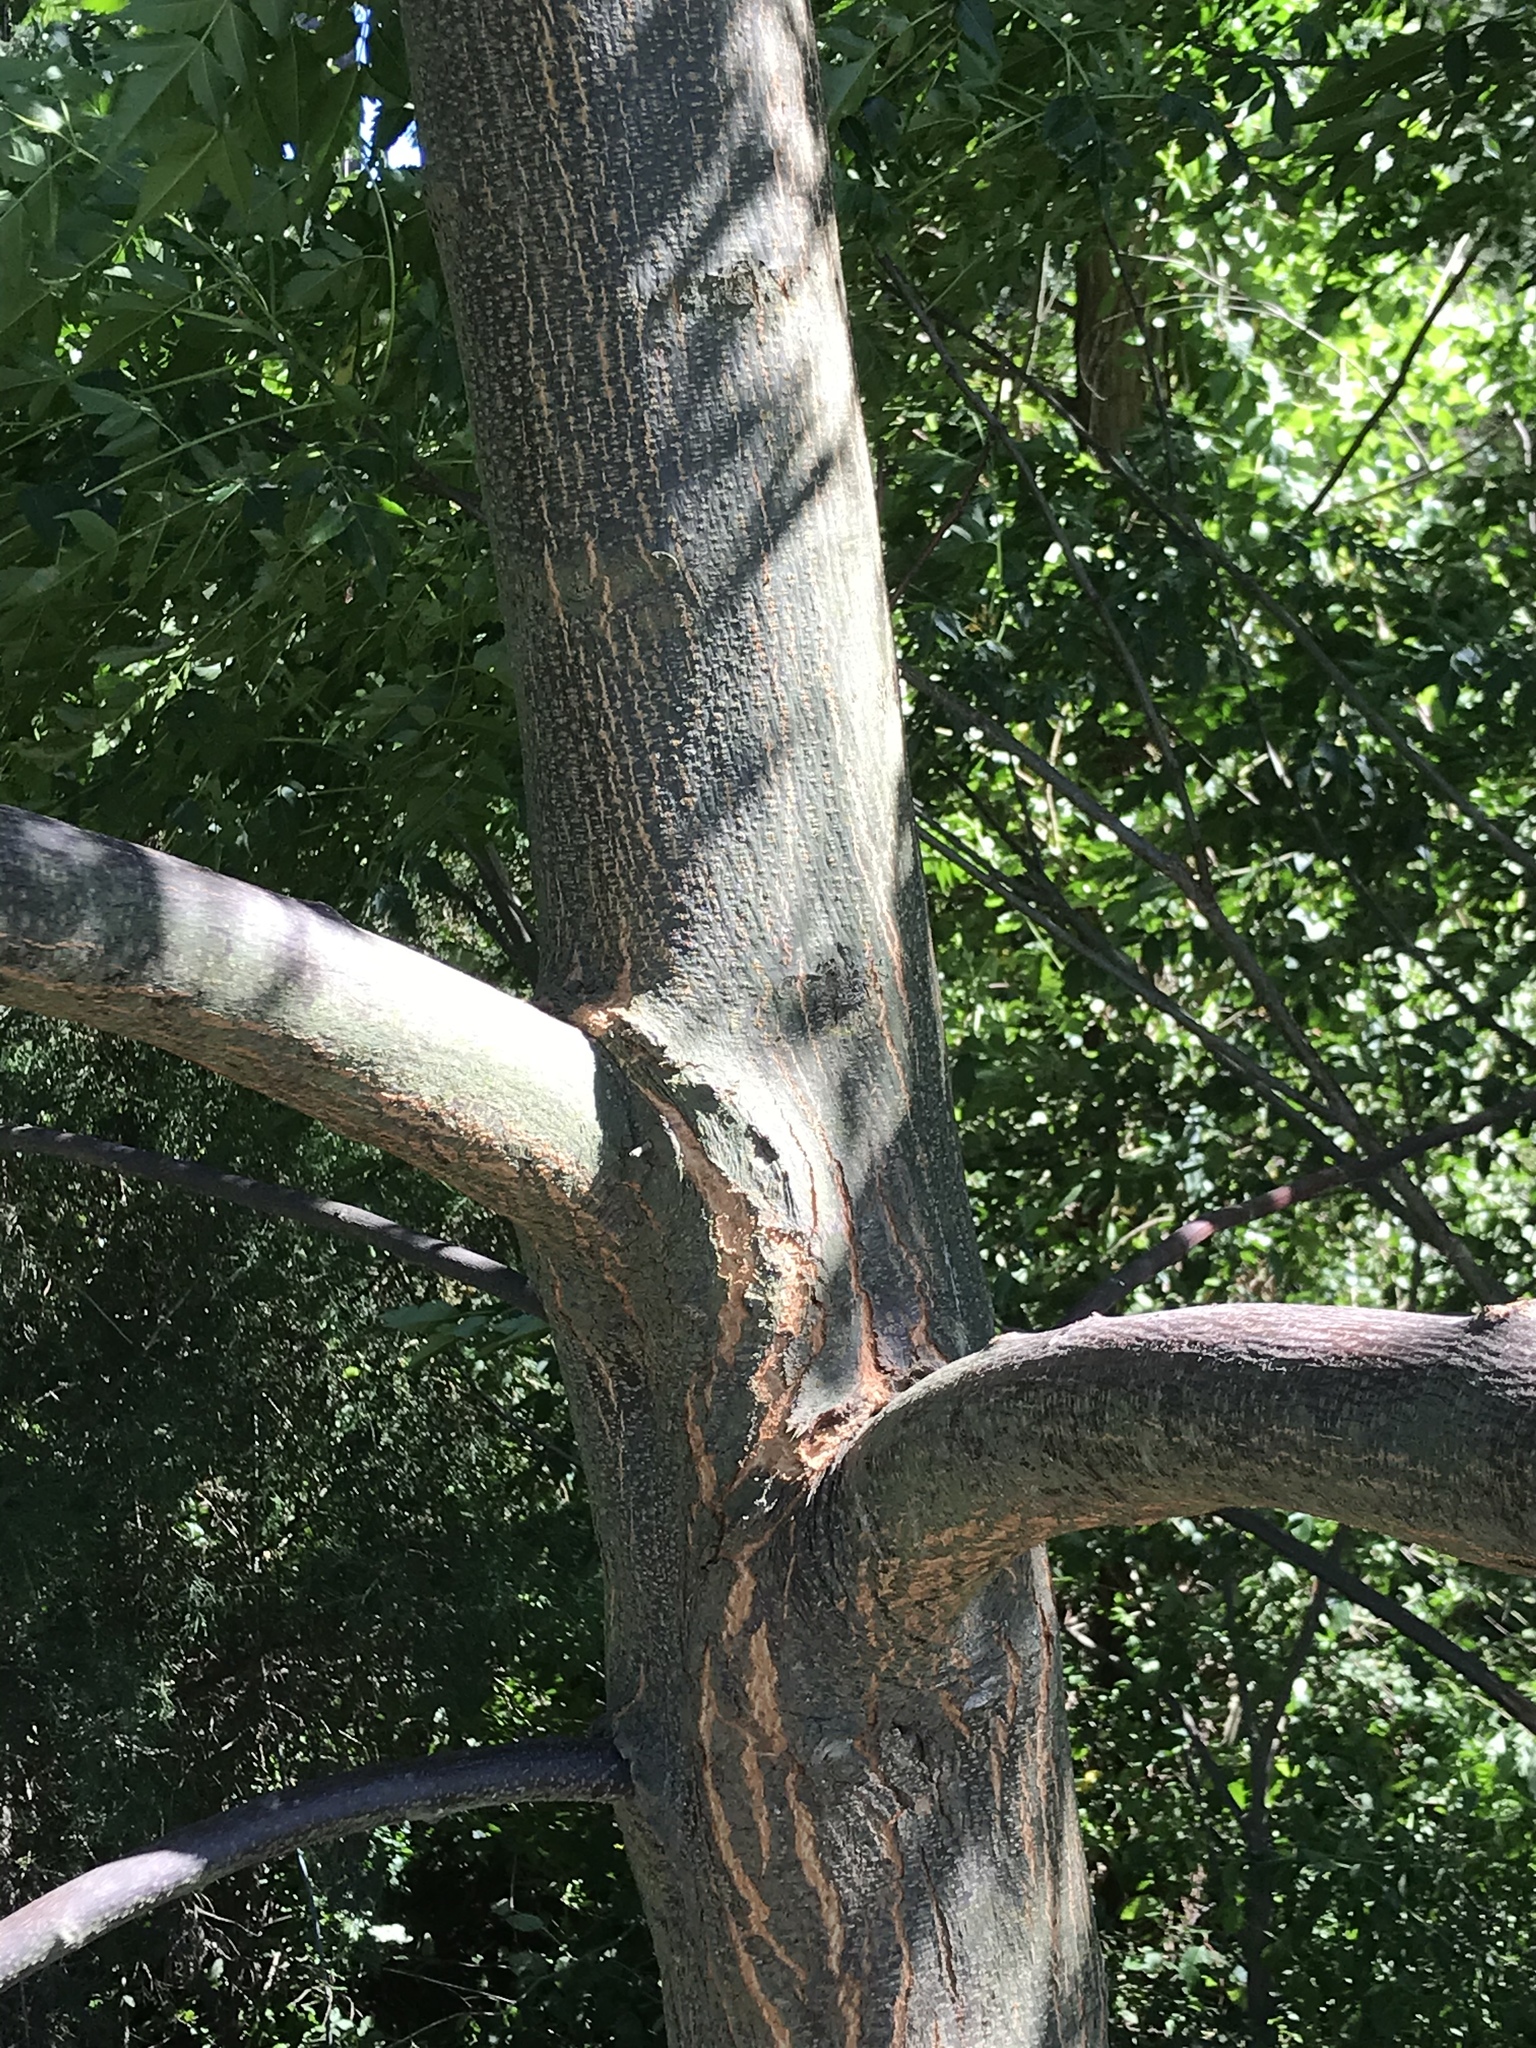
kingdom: Plantae
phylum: Tracheophyta
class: Magnoliopsida
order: Sapindales
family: Meliaceae
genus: Melia
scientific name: Melia azedarach
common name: Chinaberrytree
